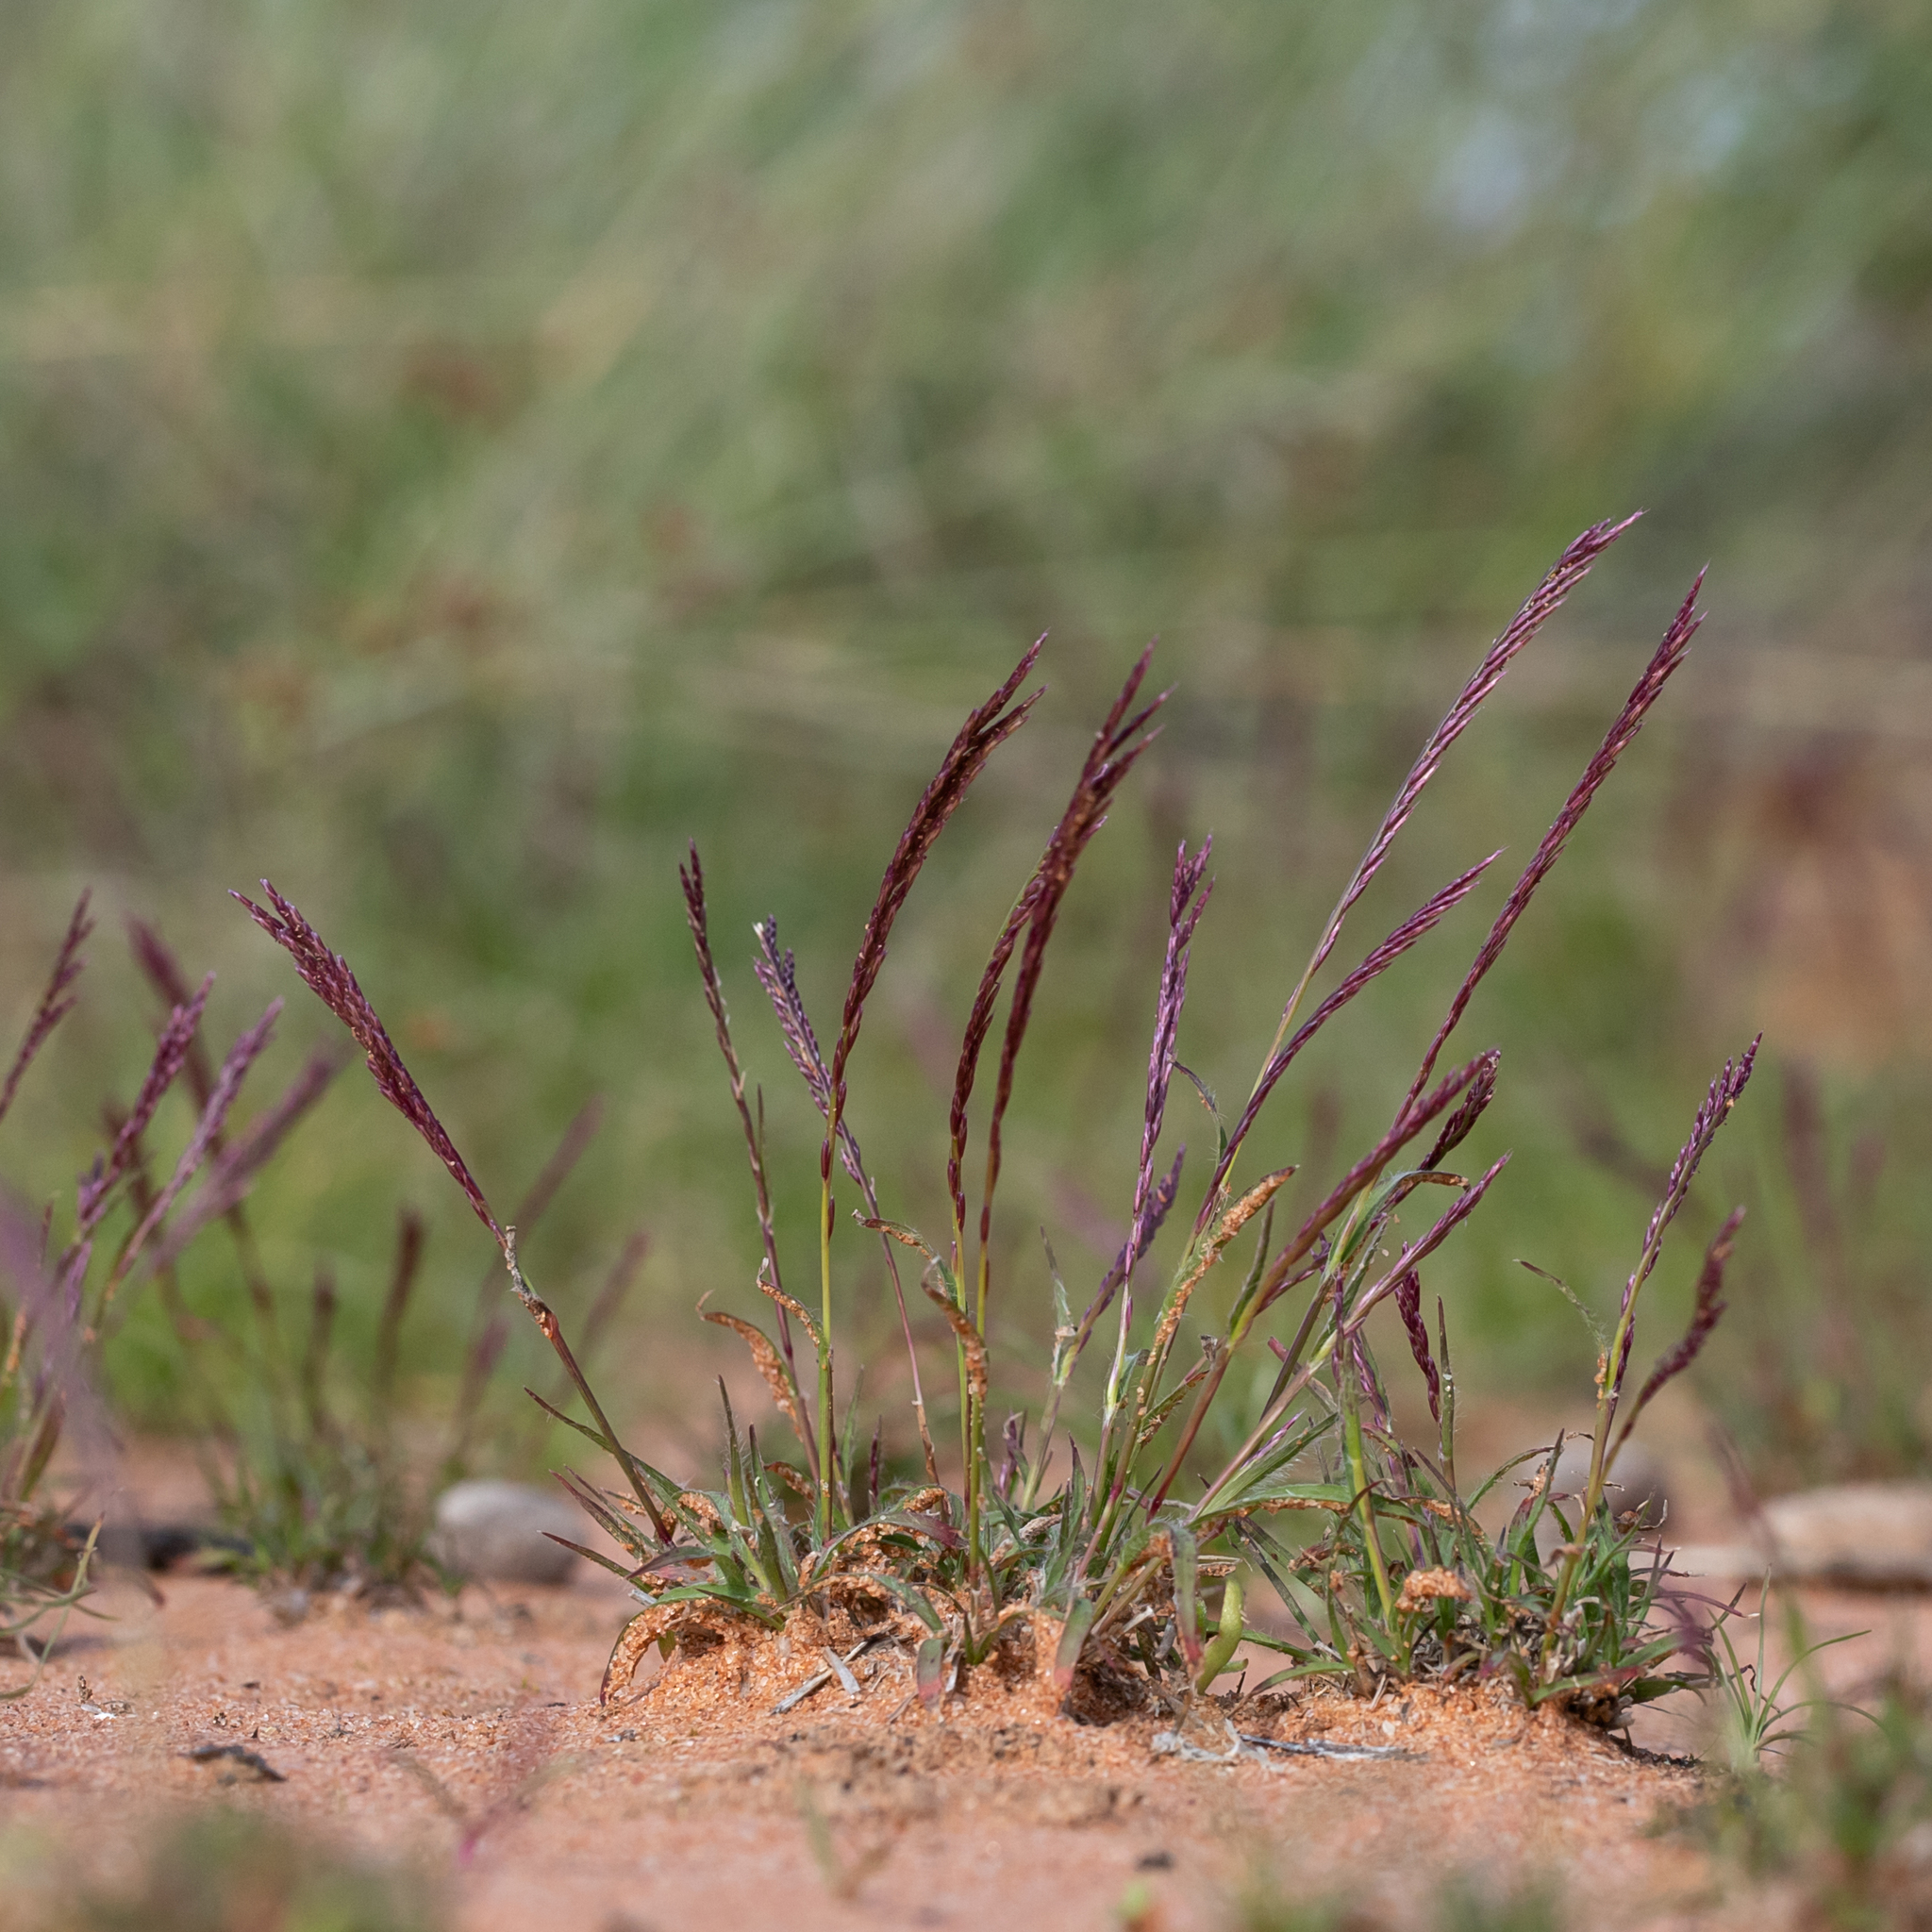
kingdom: Plantae
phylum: Tracheophyta
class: Liliopsida
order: Poales
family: Poaceae
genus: Tripogonella
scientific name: Tripogonella loliiformis
